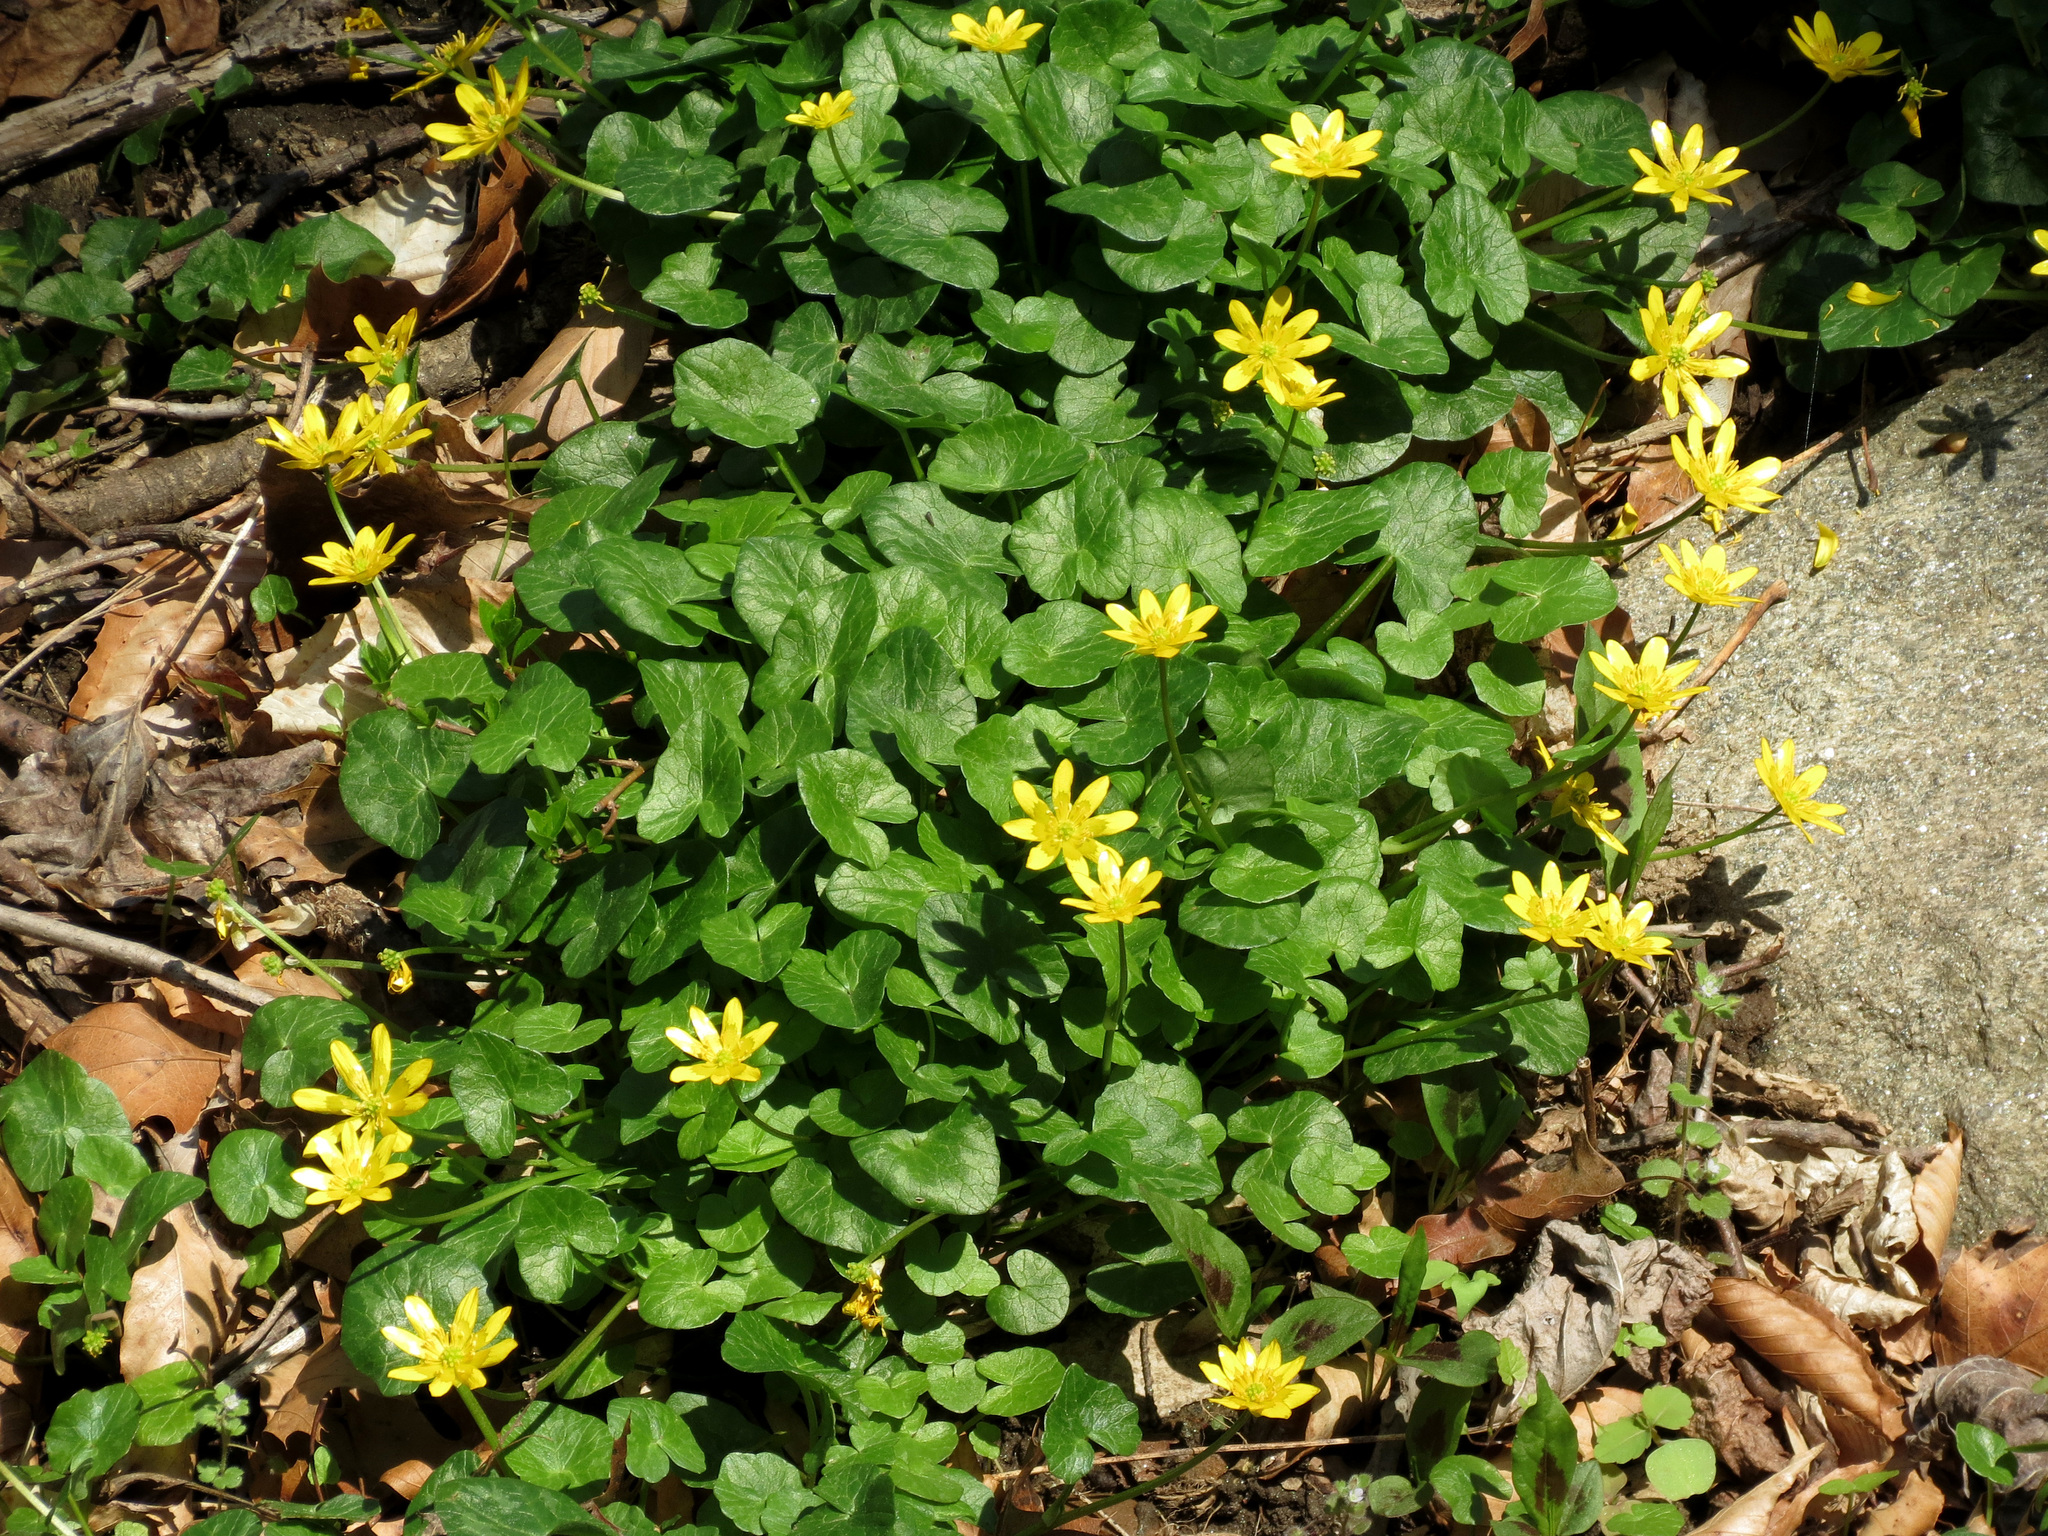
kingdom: Plantae
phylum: Tracheophyta
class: Magnoliopsida
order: Ranunculales
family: Ranunculaceae
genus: Ficaria
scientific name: Ficaria verna
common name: Lesser celandine
